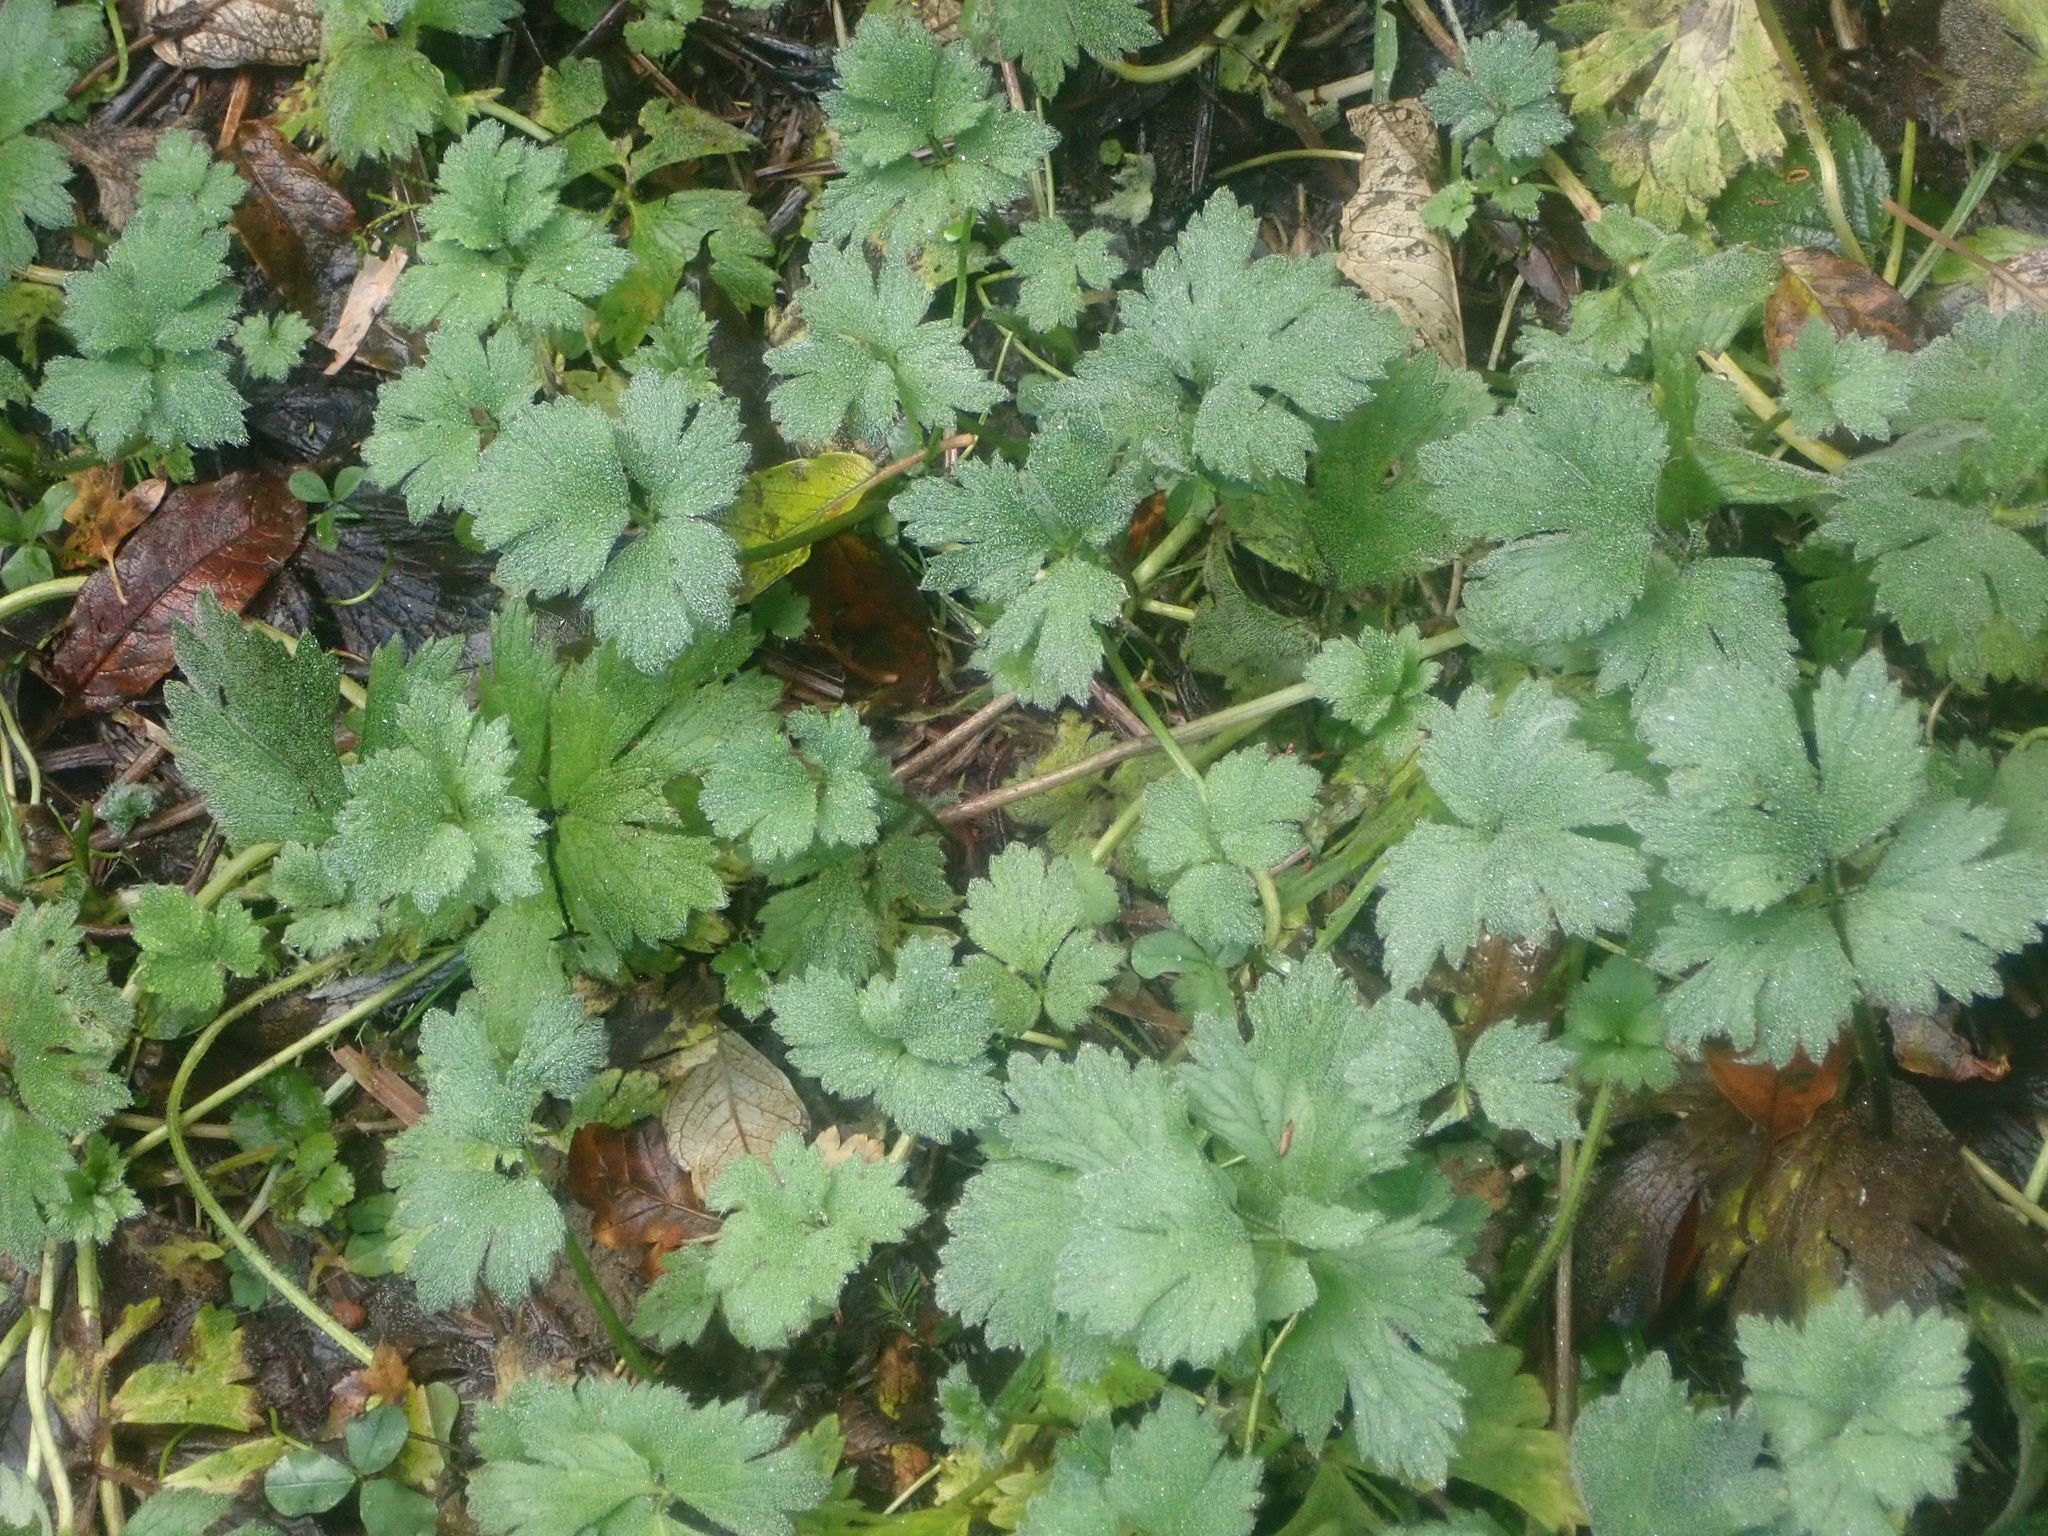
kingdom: Plantae
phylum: Tracheophyta
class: Magnoliopsida
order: Ranunculales
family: Ranunculaceae
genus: Ranunculus
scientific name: Ranunculus repens
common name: Creeping buttercup
